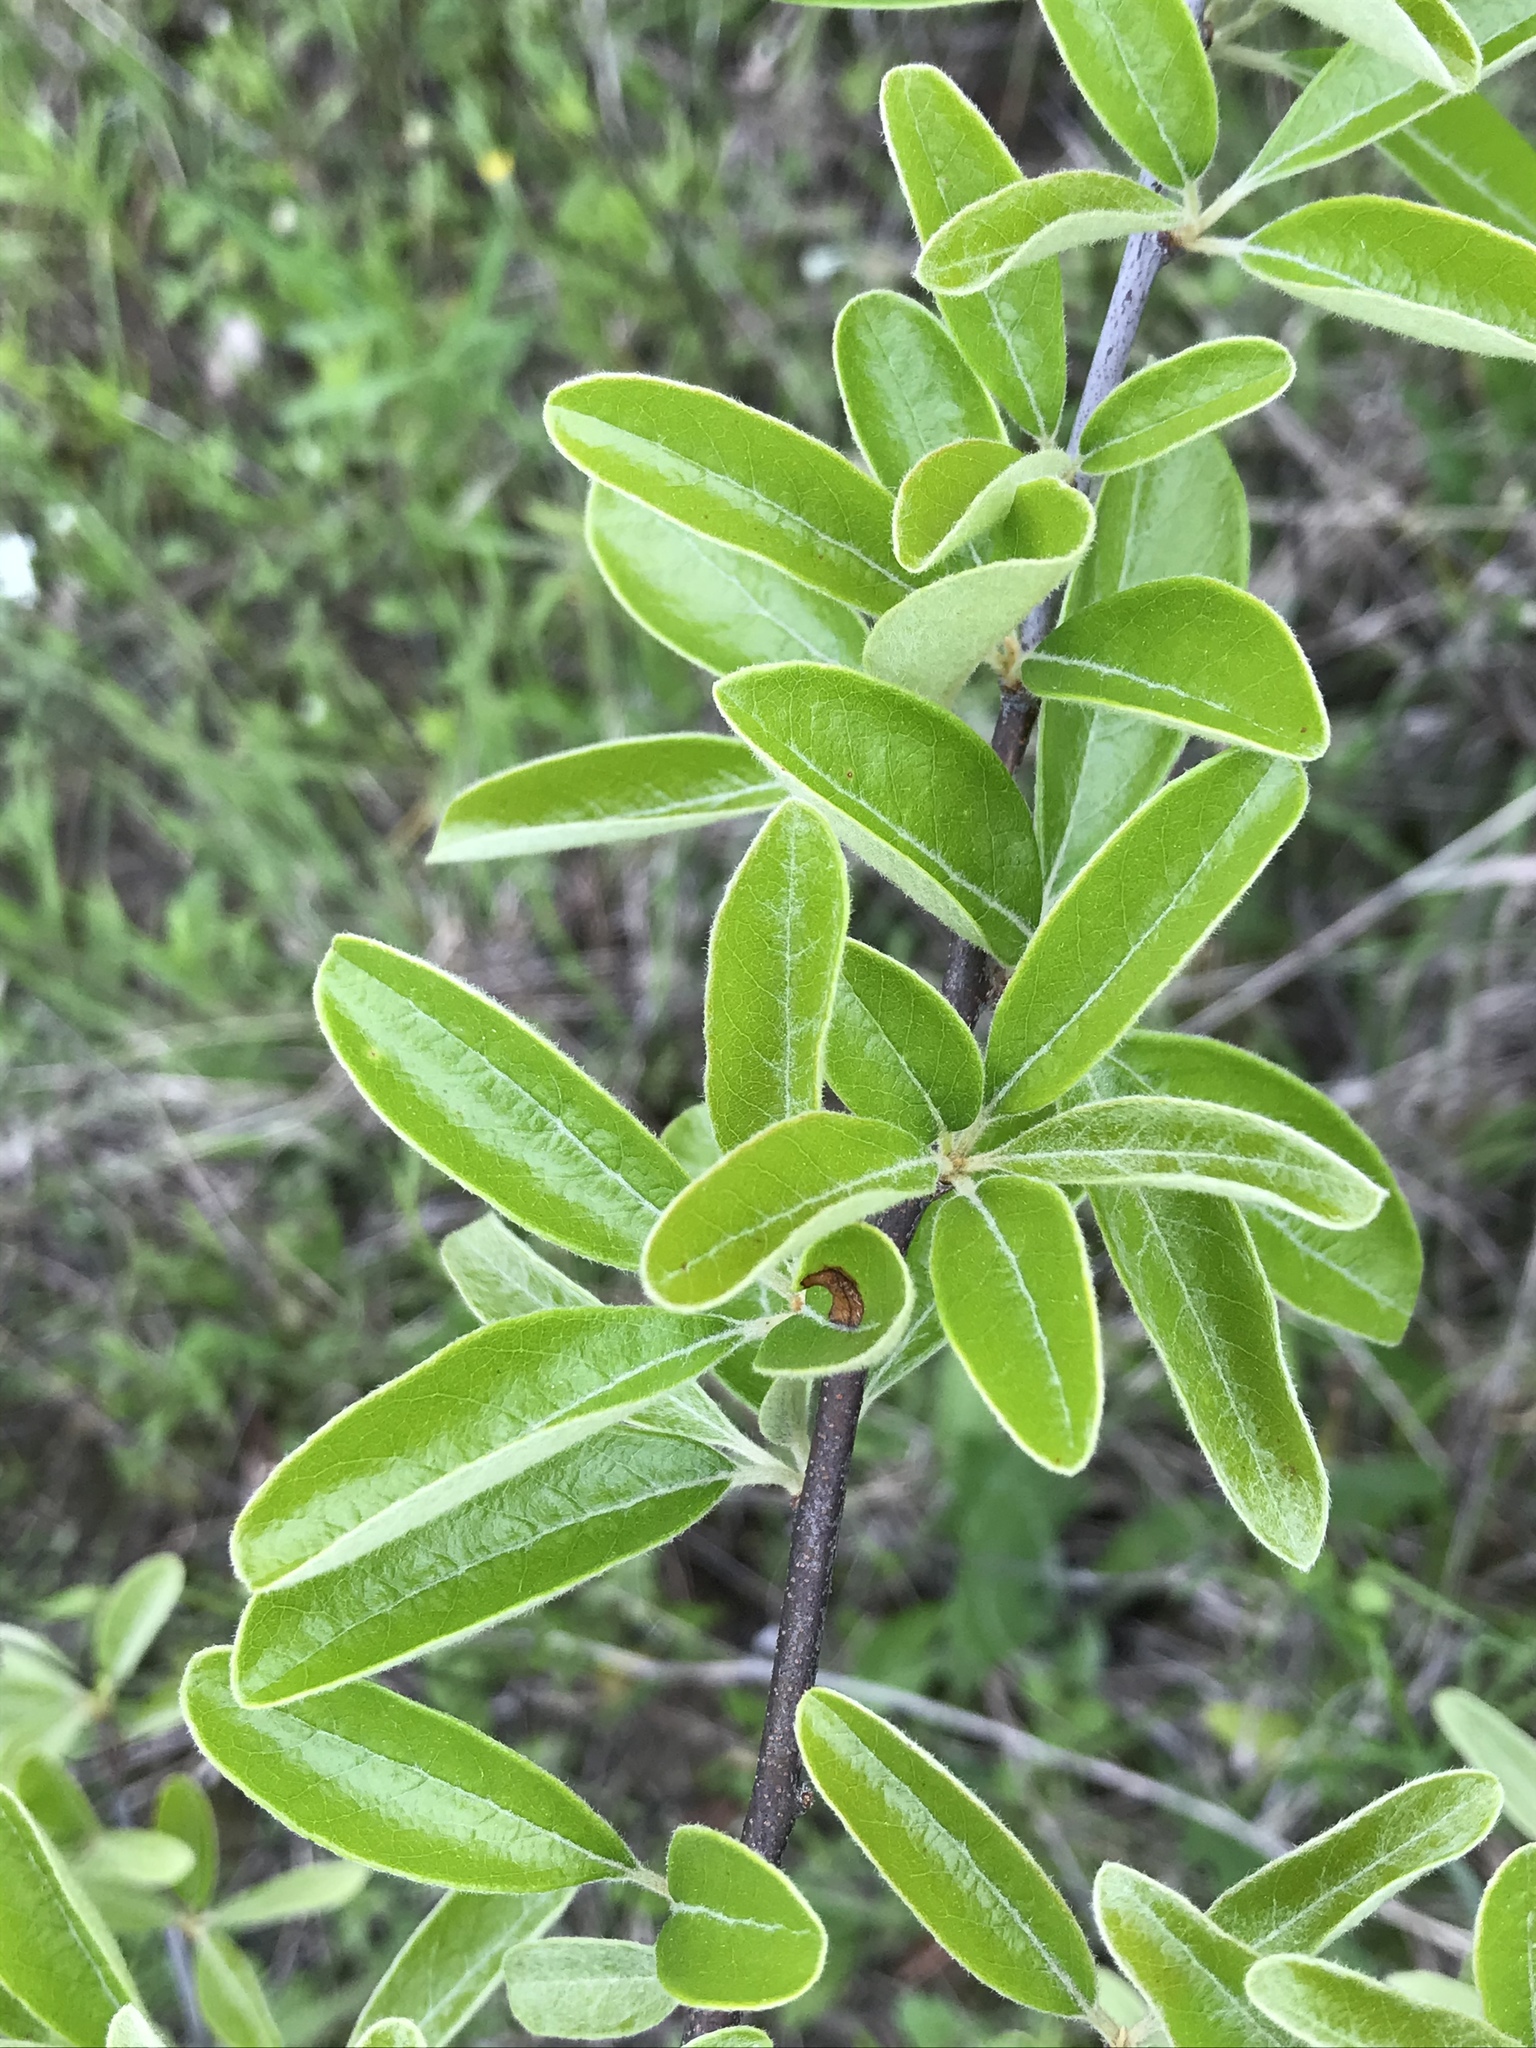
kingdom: Plantae
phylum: Tracheophyta
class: Magnoliopsida
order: Ericales
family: Sapotaceae
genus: Sideroxylon
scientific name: Sideroxylon lanuginosum
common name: Chittamwood
